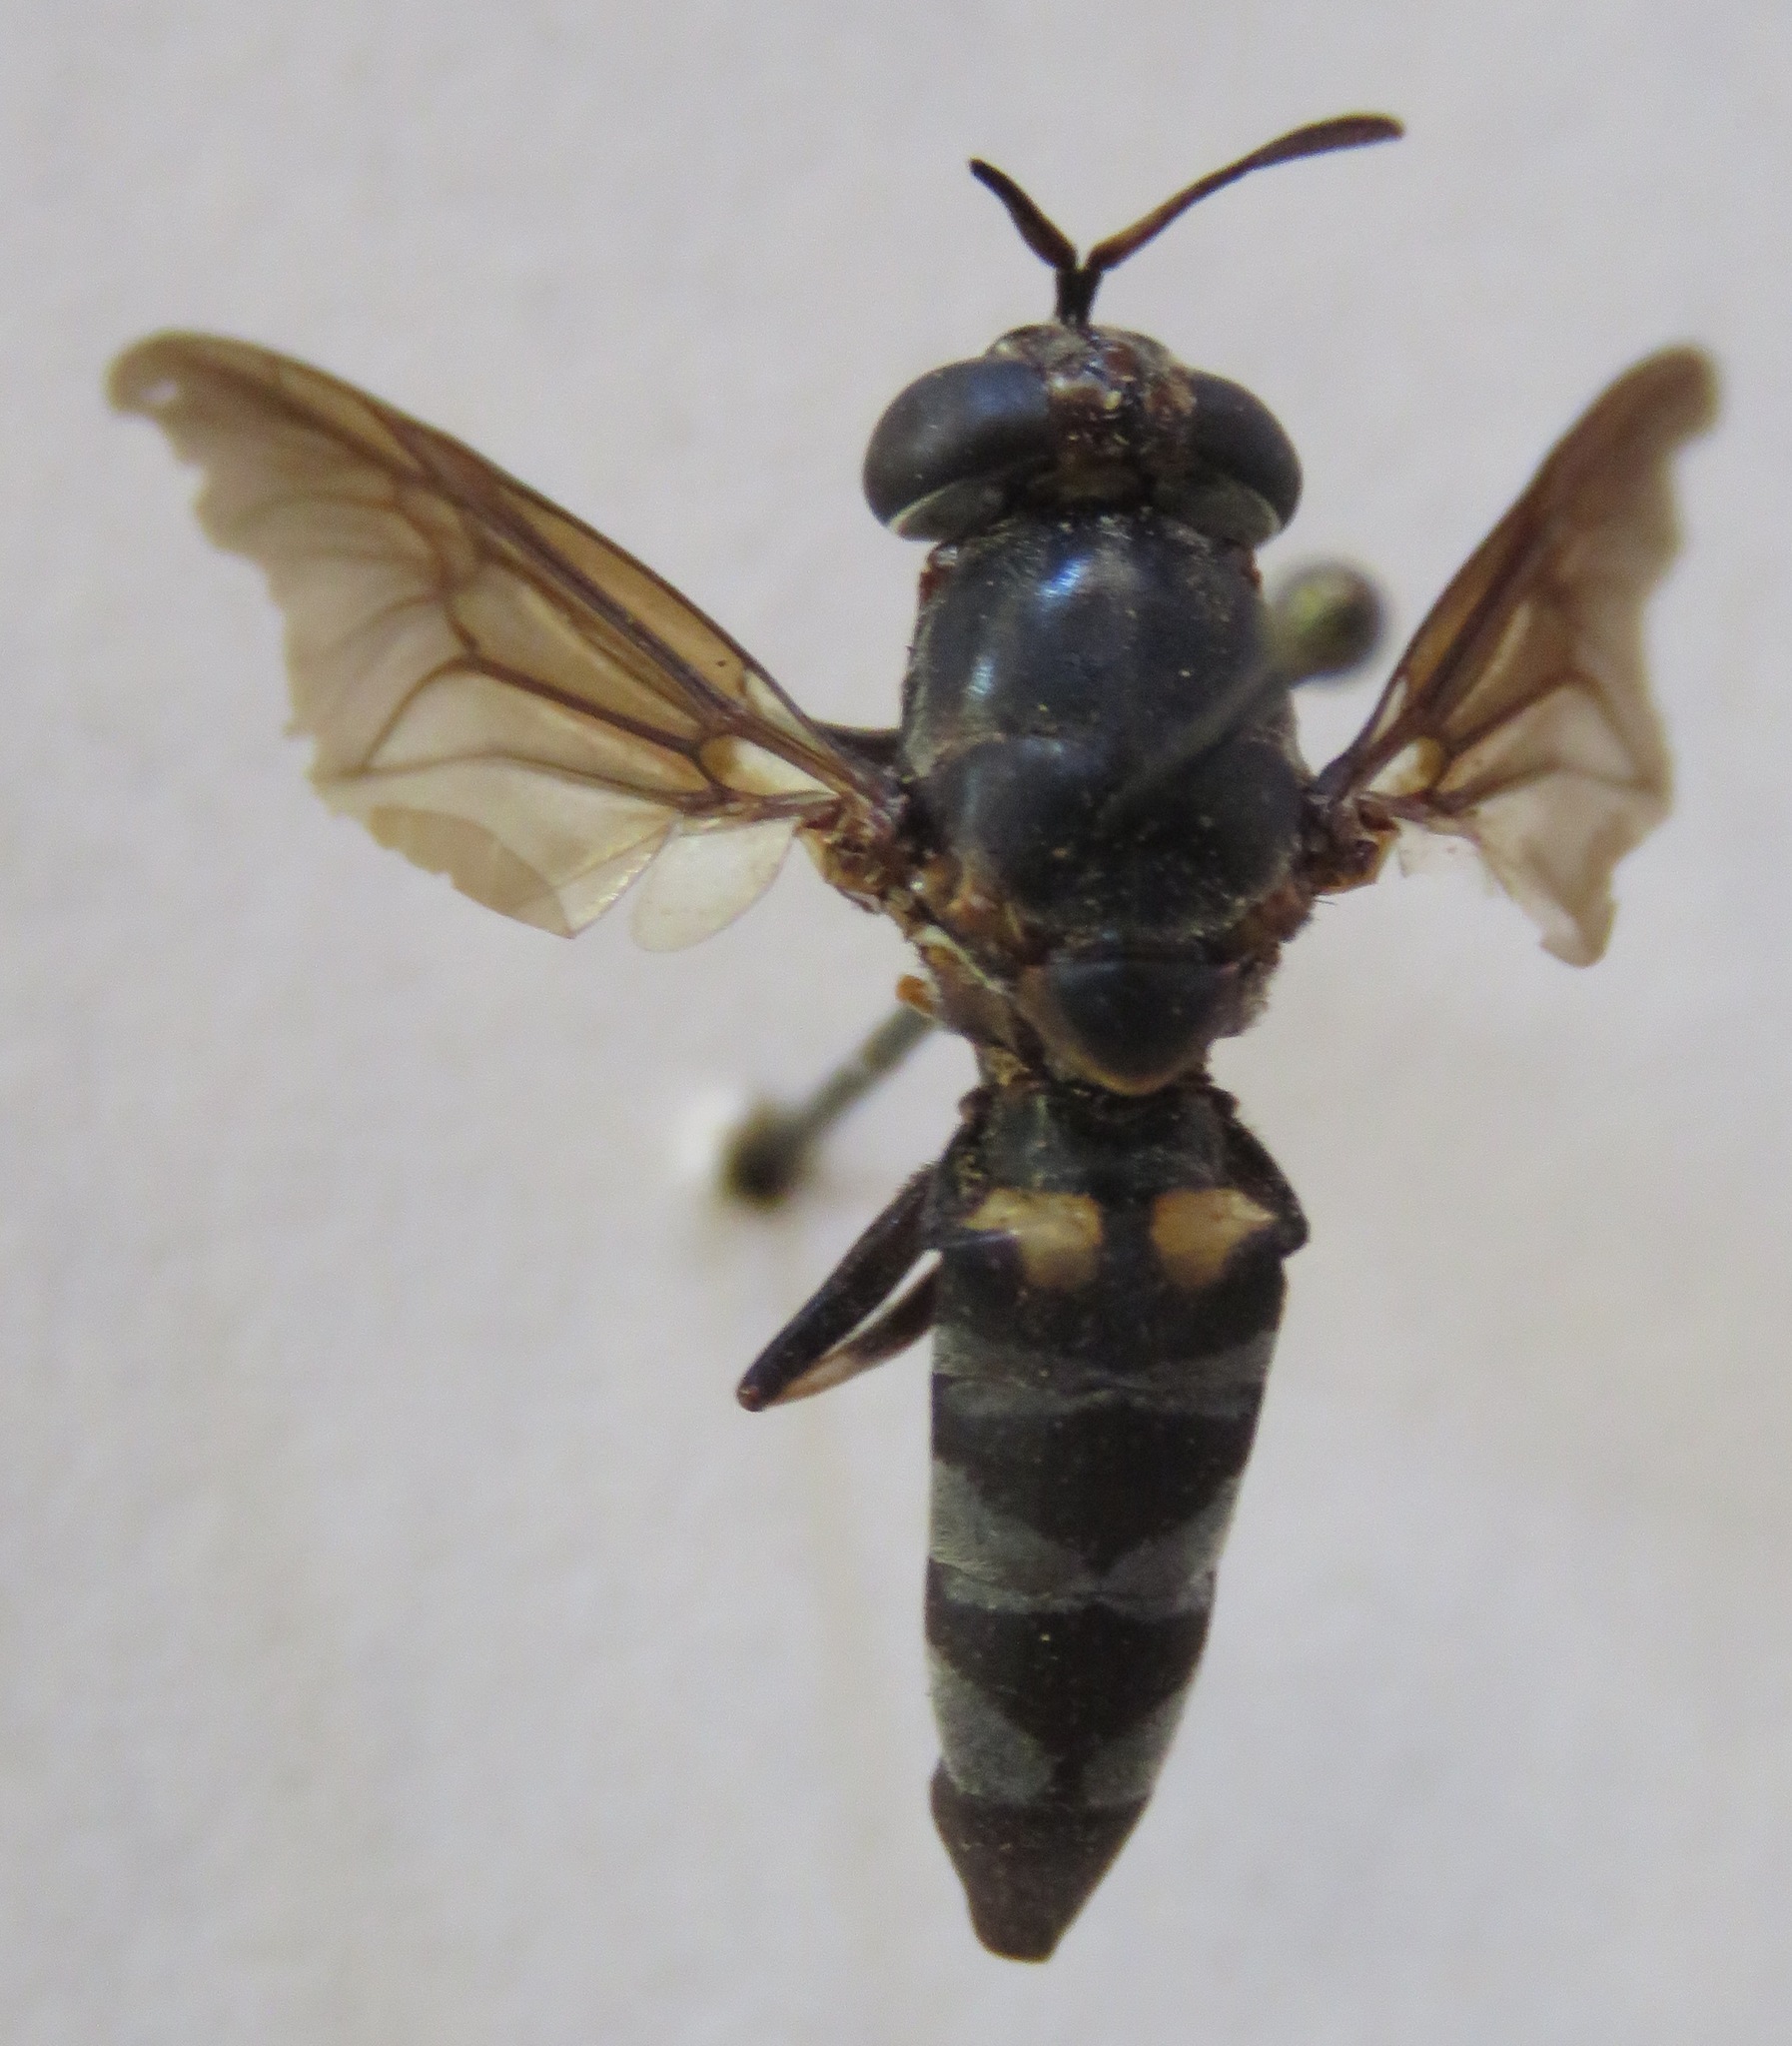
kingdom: Animalia
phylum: Arthropoda
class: Insecta
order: Diptera
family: Stratiomyidae
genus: Hermetia
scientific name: Hermetia illucens
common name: Black soldier fly
